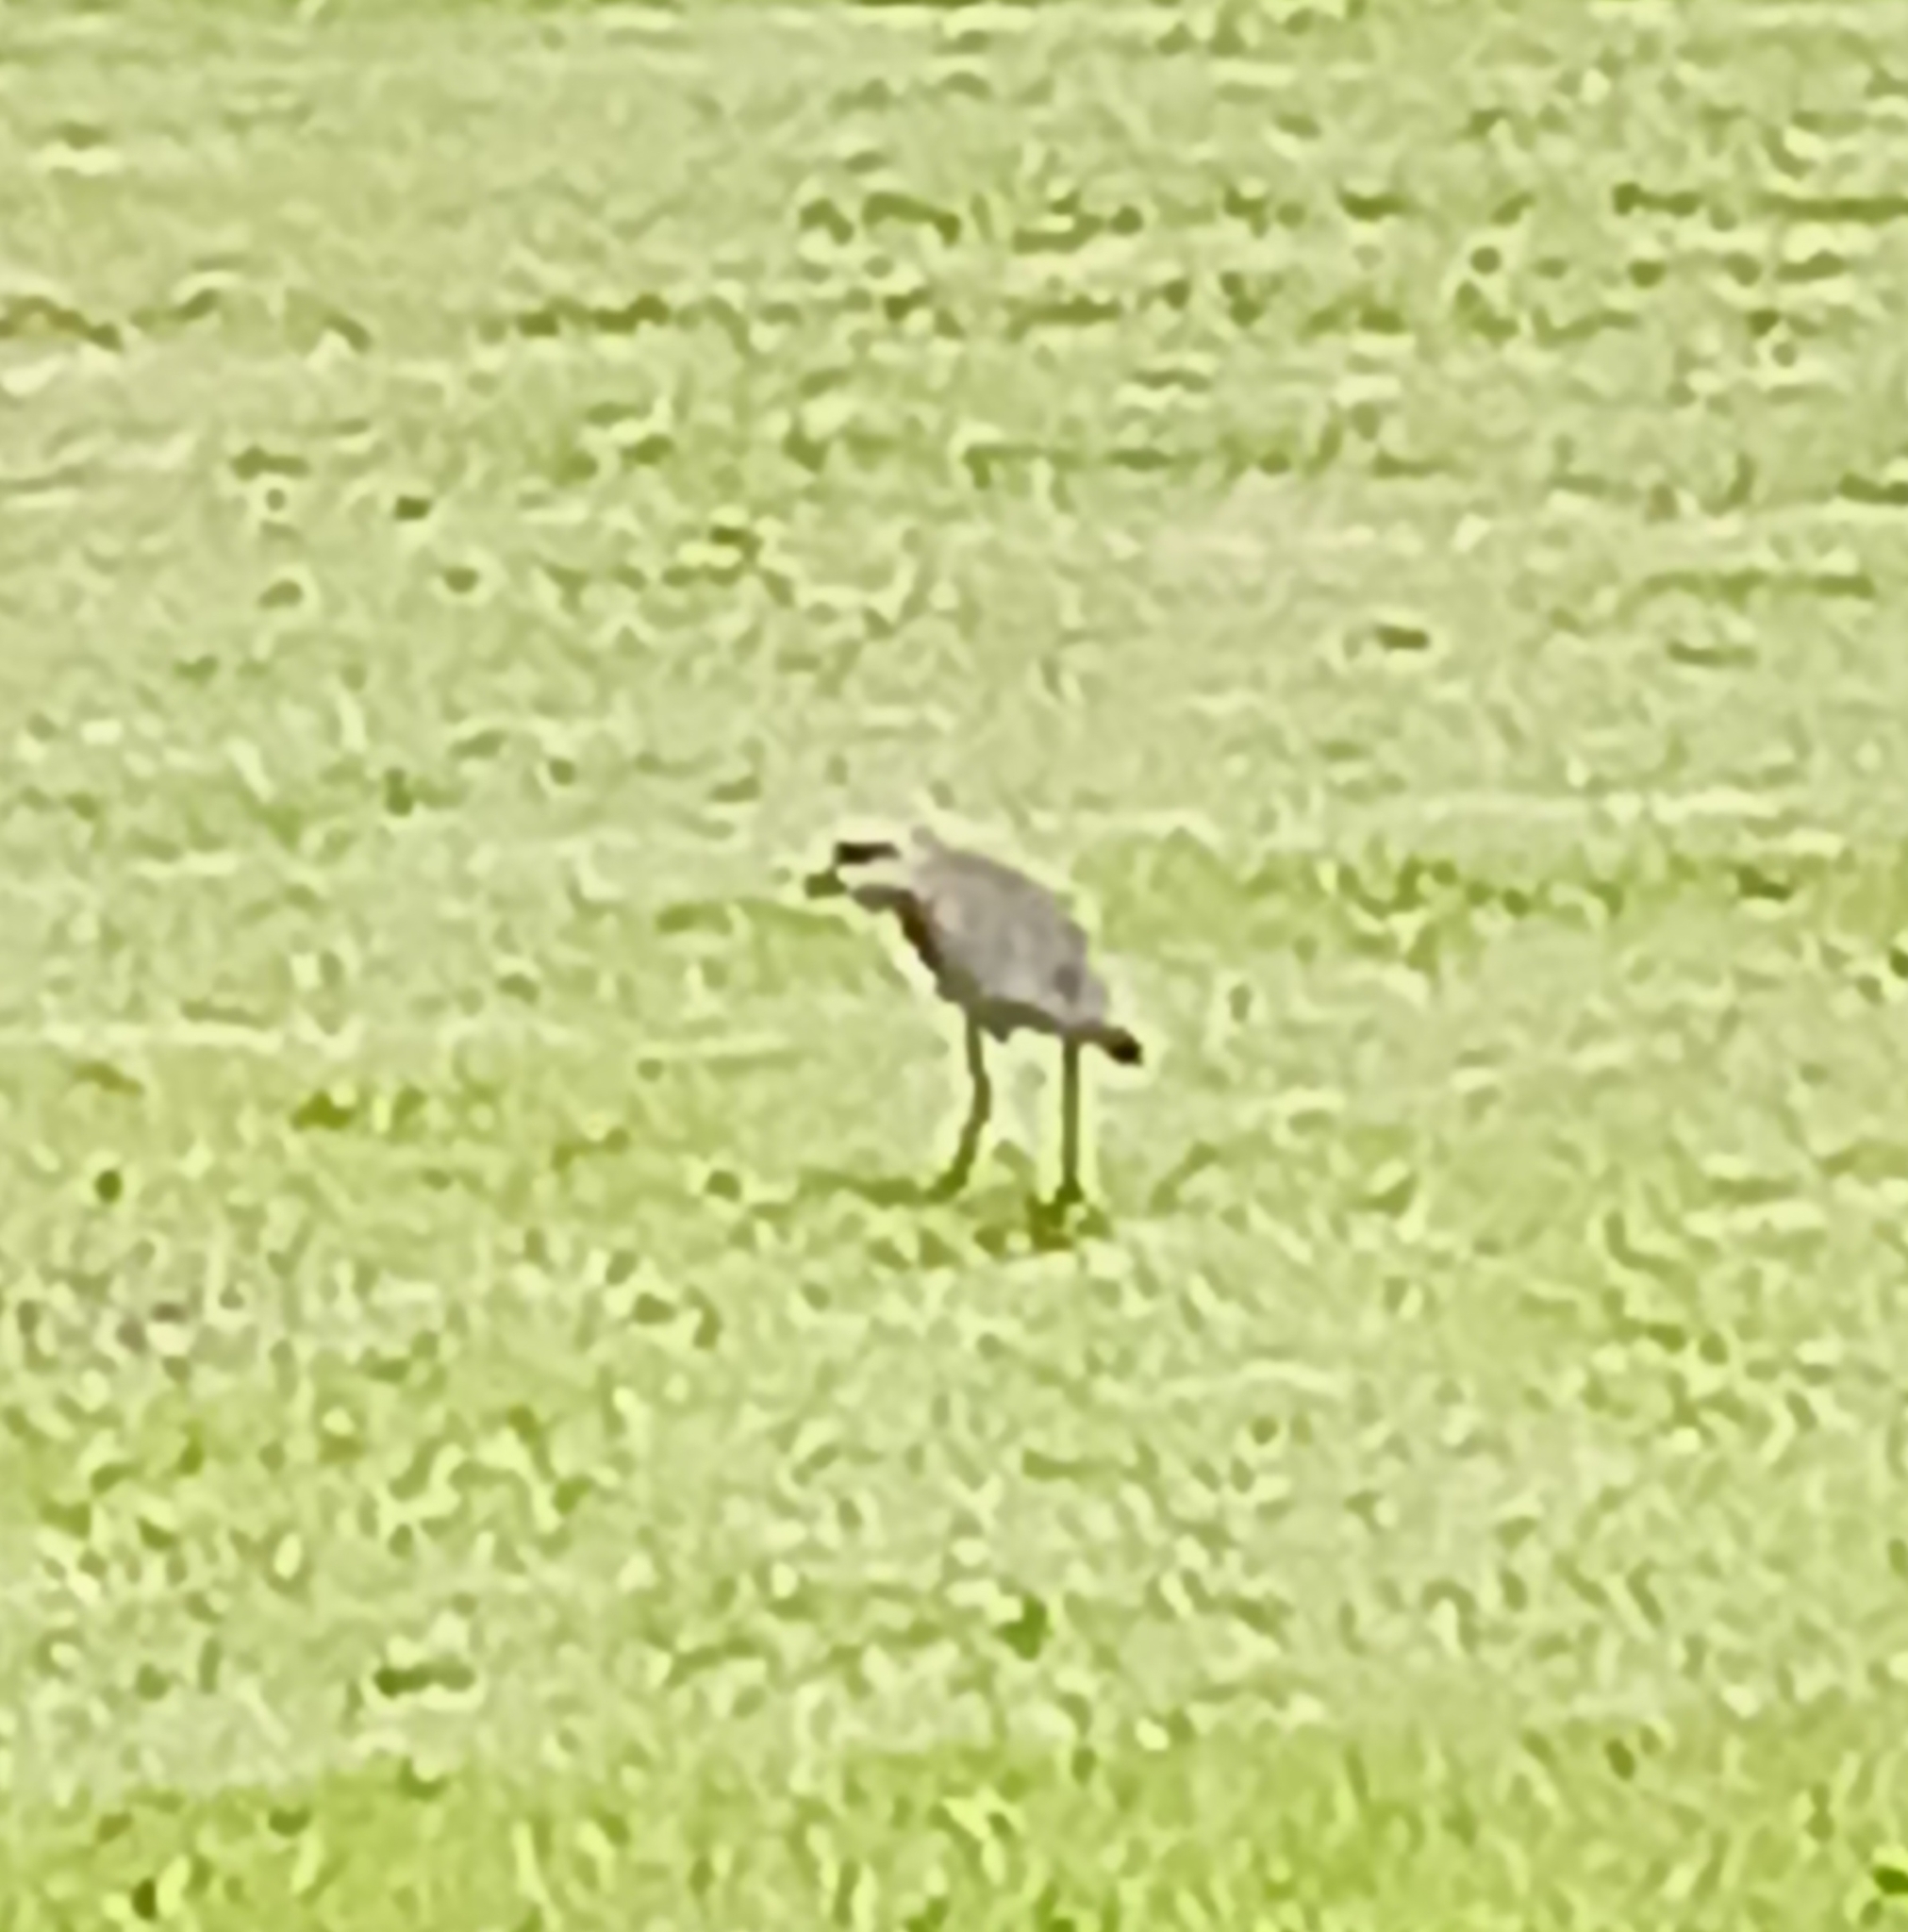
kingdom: Animalia
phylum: Chordata
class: Aves
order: Charadriiformes
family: Charadriidae
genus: Vanellus
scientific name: Vanellus chilensis
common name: Southern lapwing
